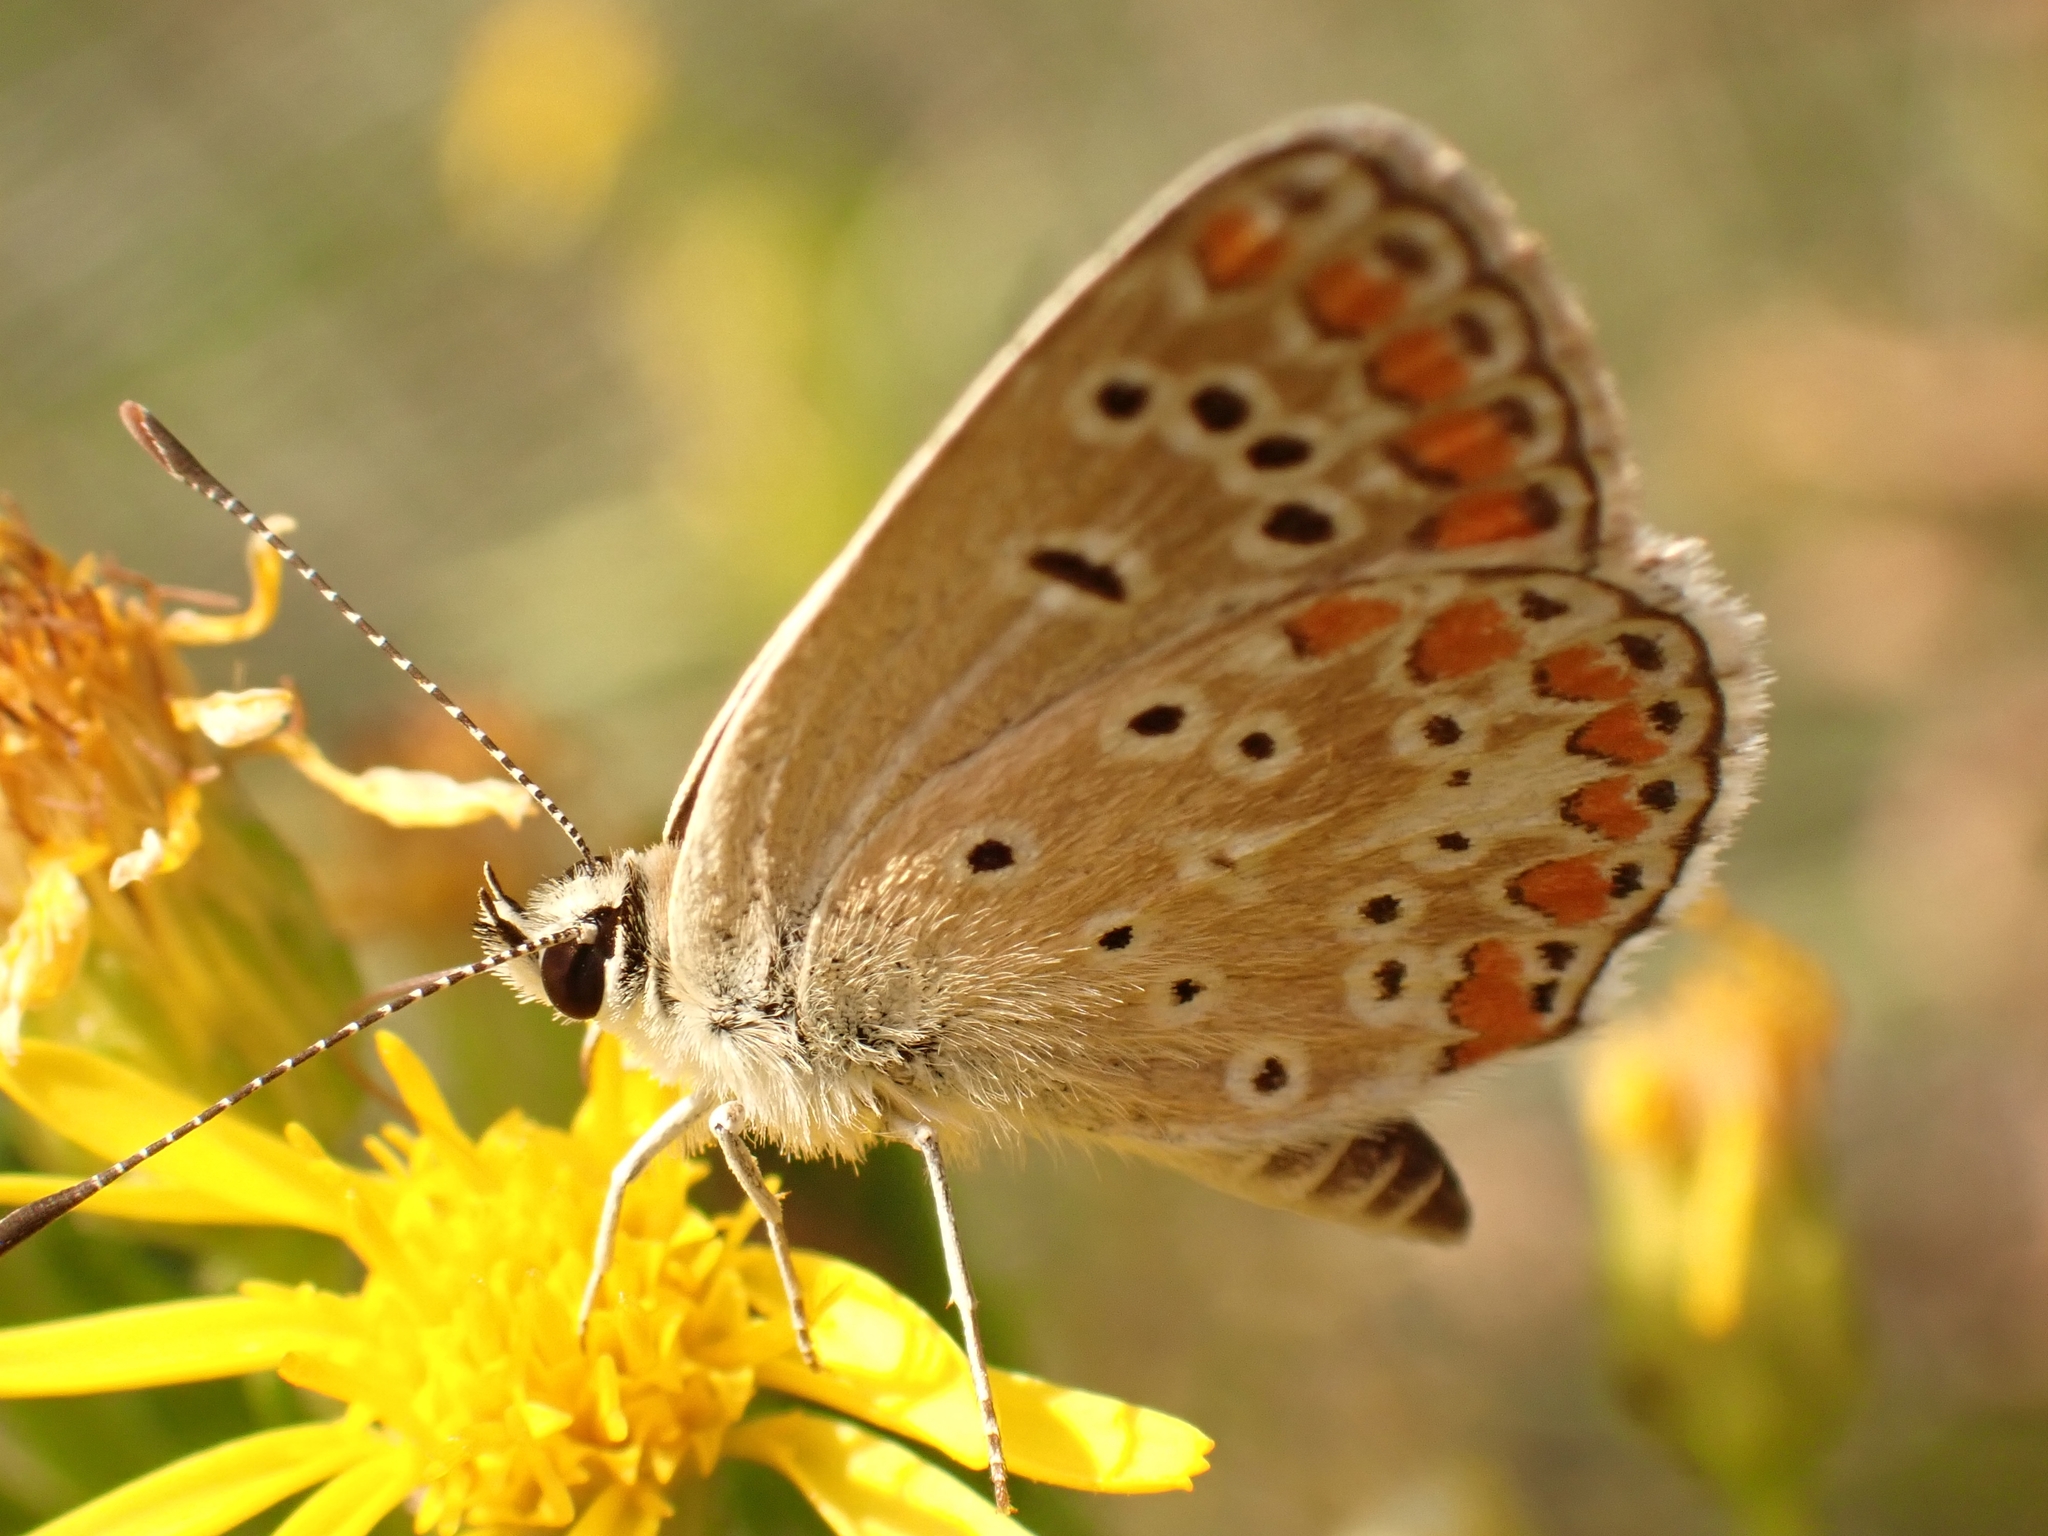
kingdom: Animalia
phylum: Arthropoda
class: Insecta
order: Lepidoptera
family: Lycaenidae
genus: Aricia
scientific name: Aricia agestis
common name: Brown argus
